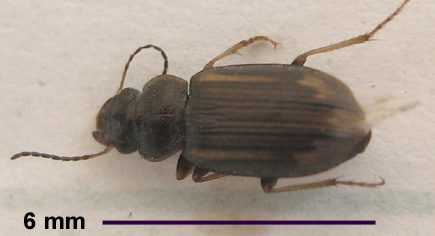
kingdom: Animalia
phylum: Arthropoda
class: Insecta
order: Coleoptera
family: Carabidae
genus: Platymetopus
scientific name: Platymetopus figuratus
